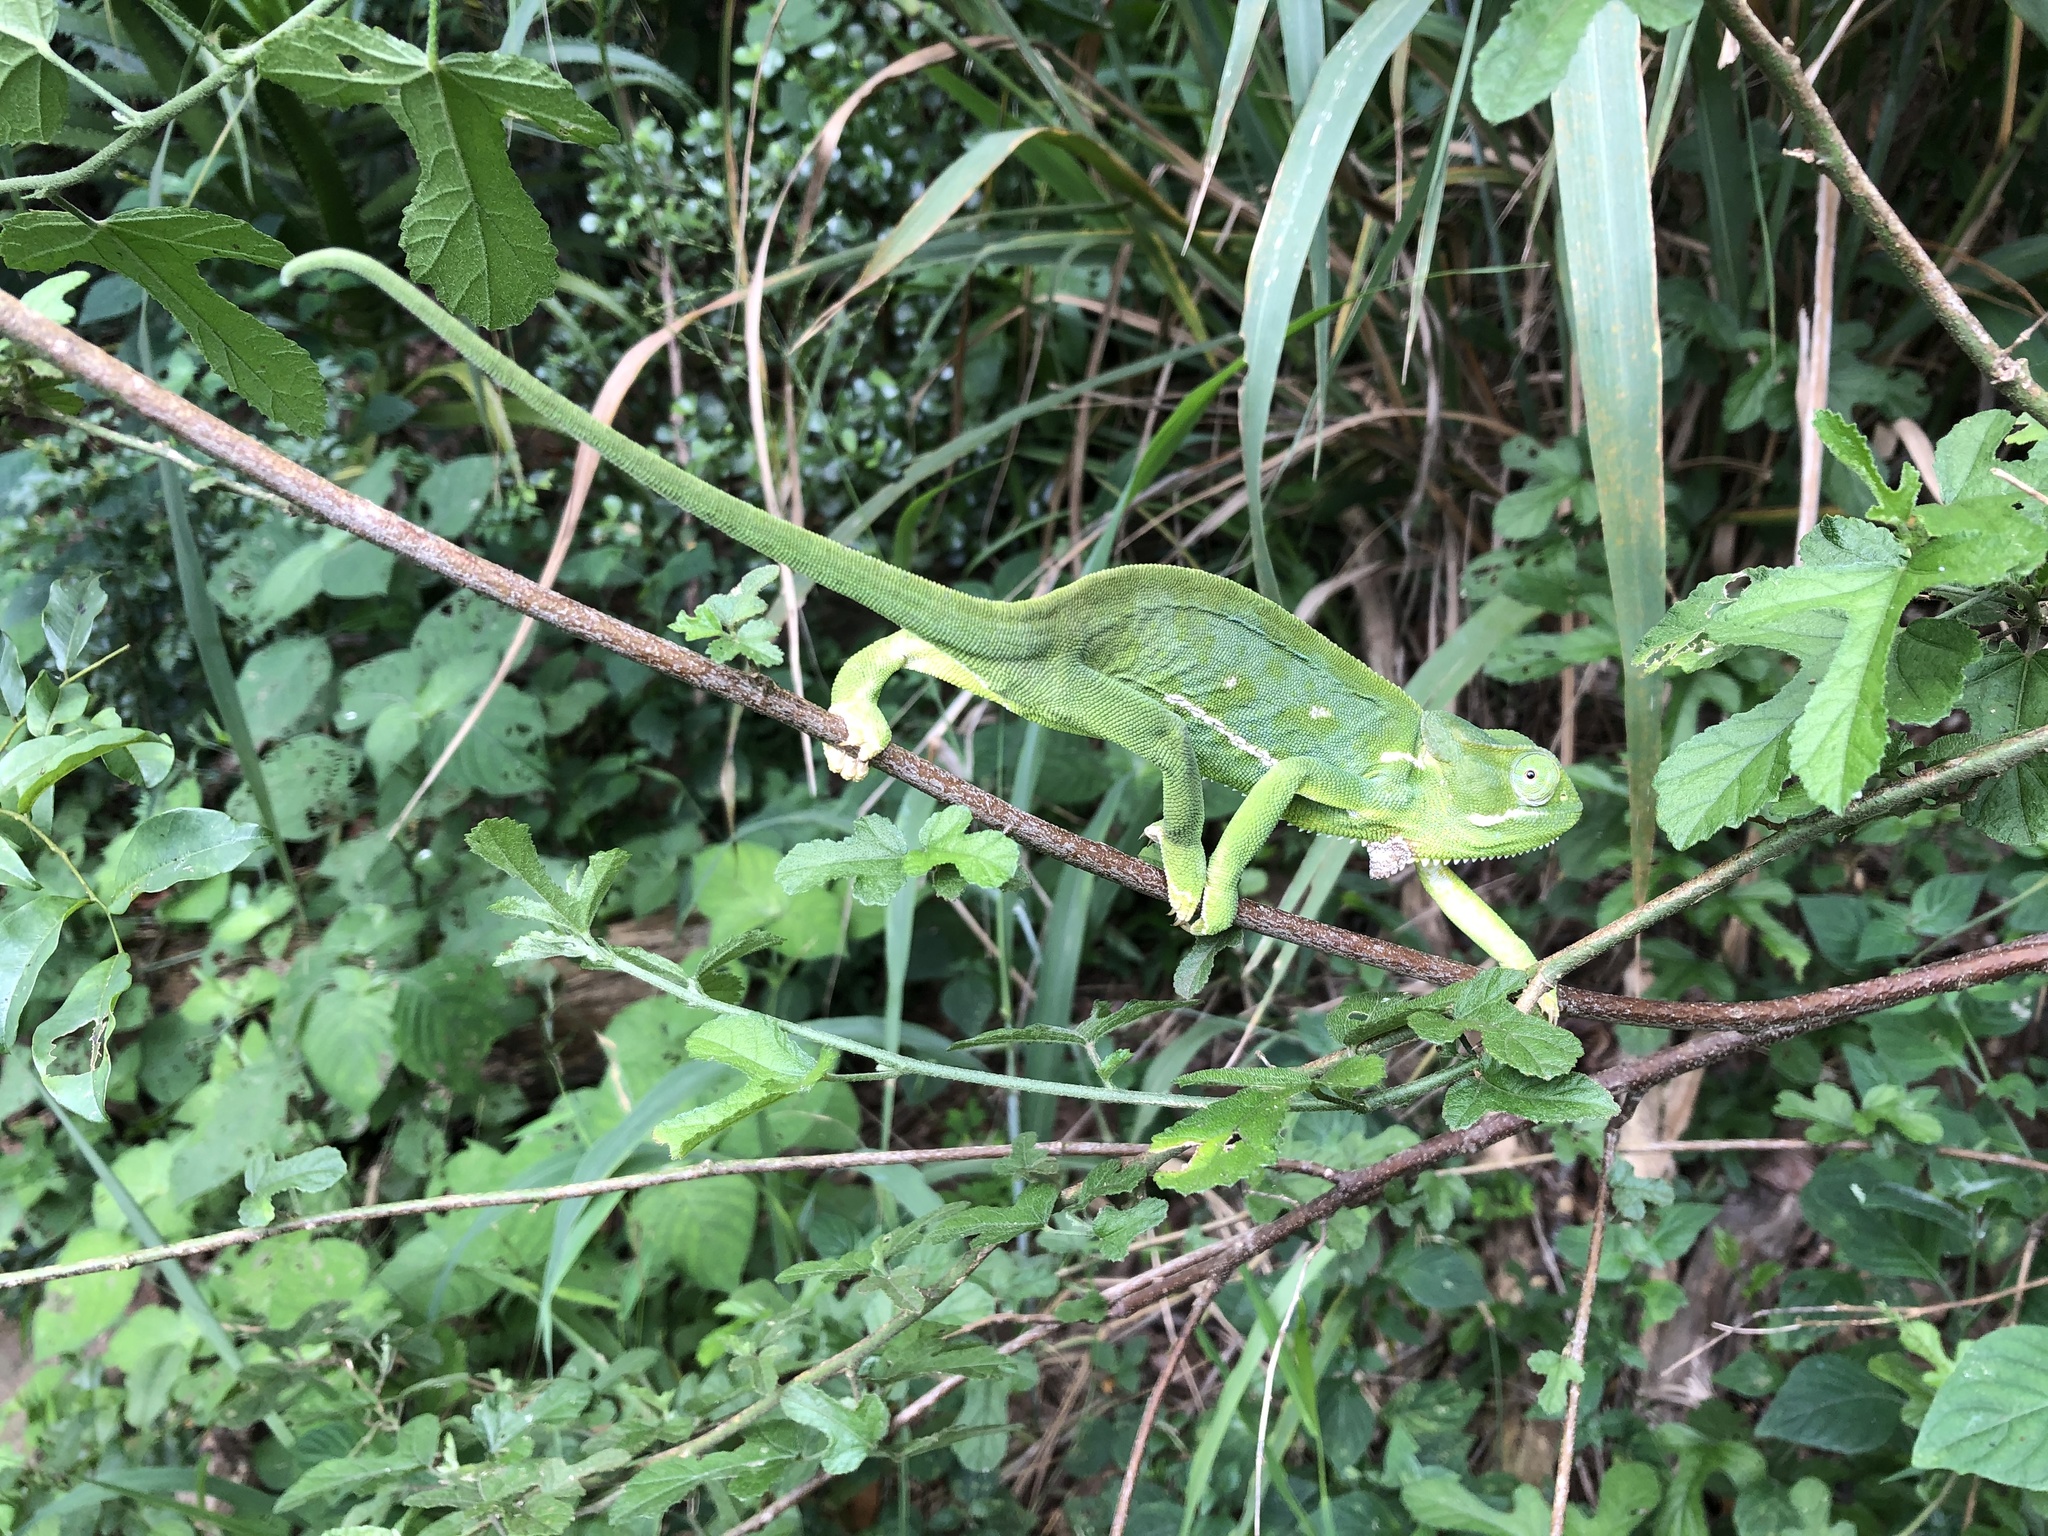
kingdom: Animalia
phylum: Chordata
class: Squamata
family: Chamaeleonidae
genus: Chamaeleo
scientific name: Chamaeleo dilepis
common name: Flapneck chameleon
